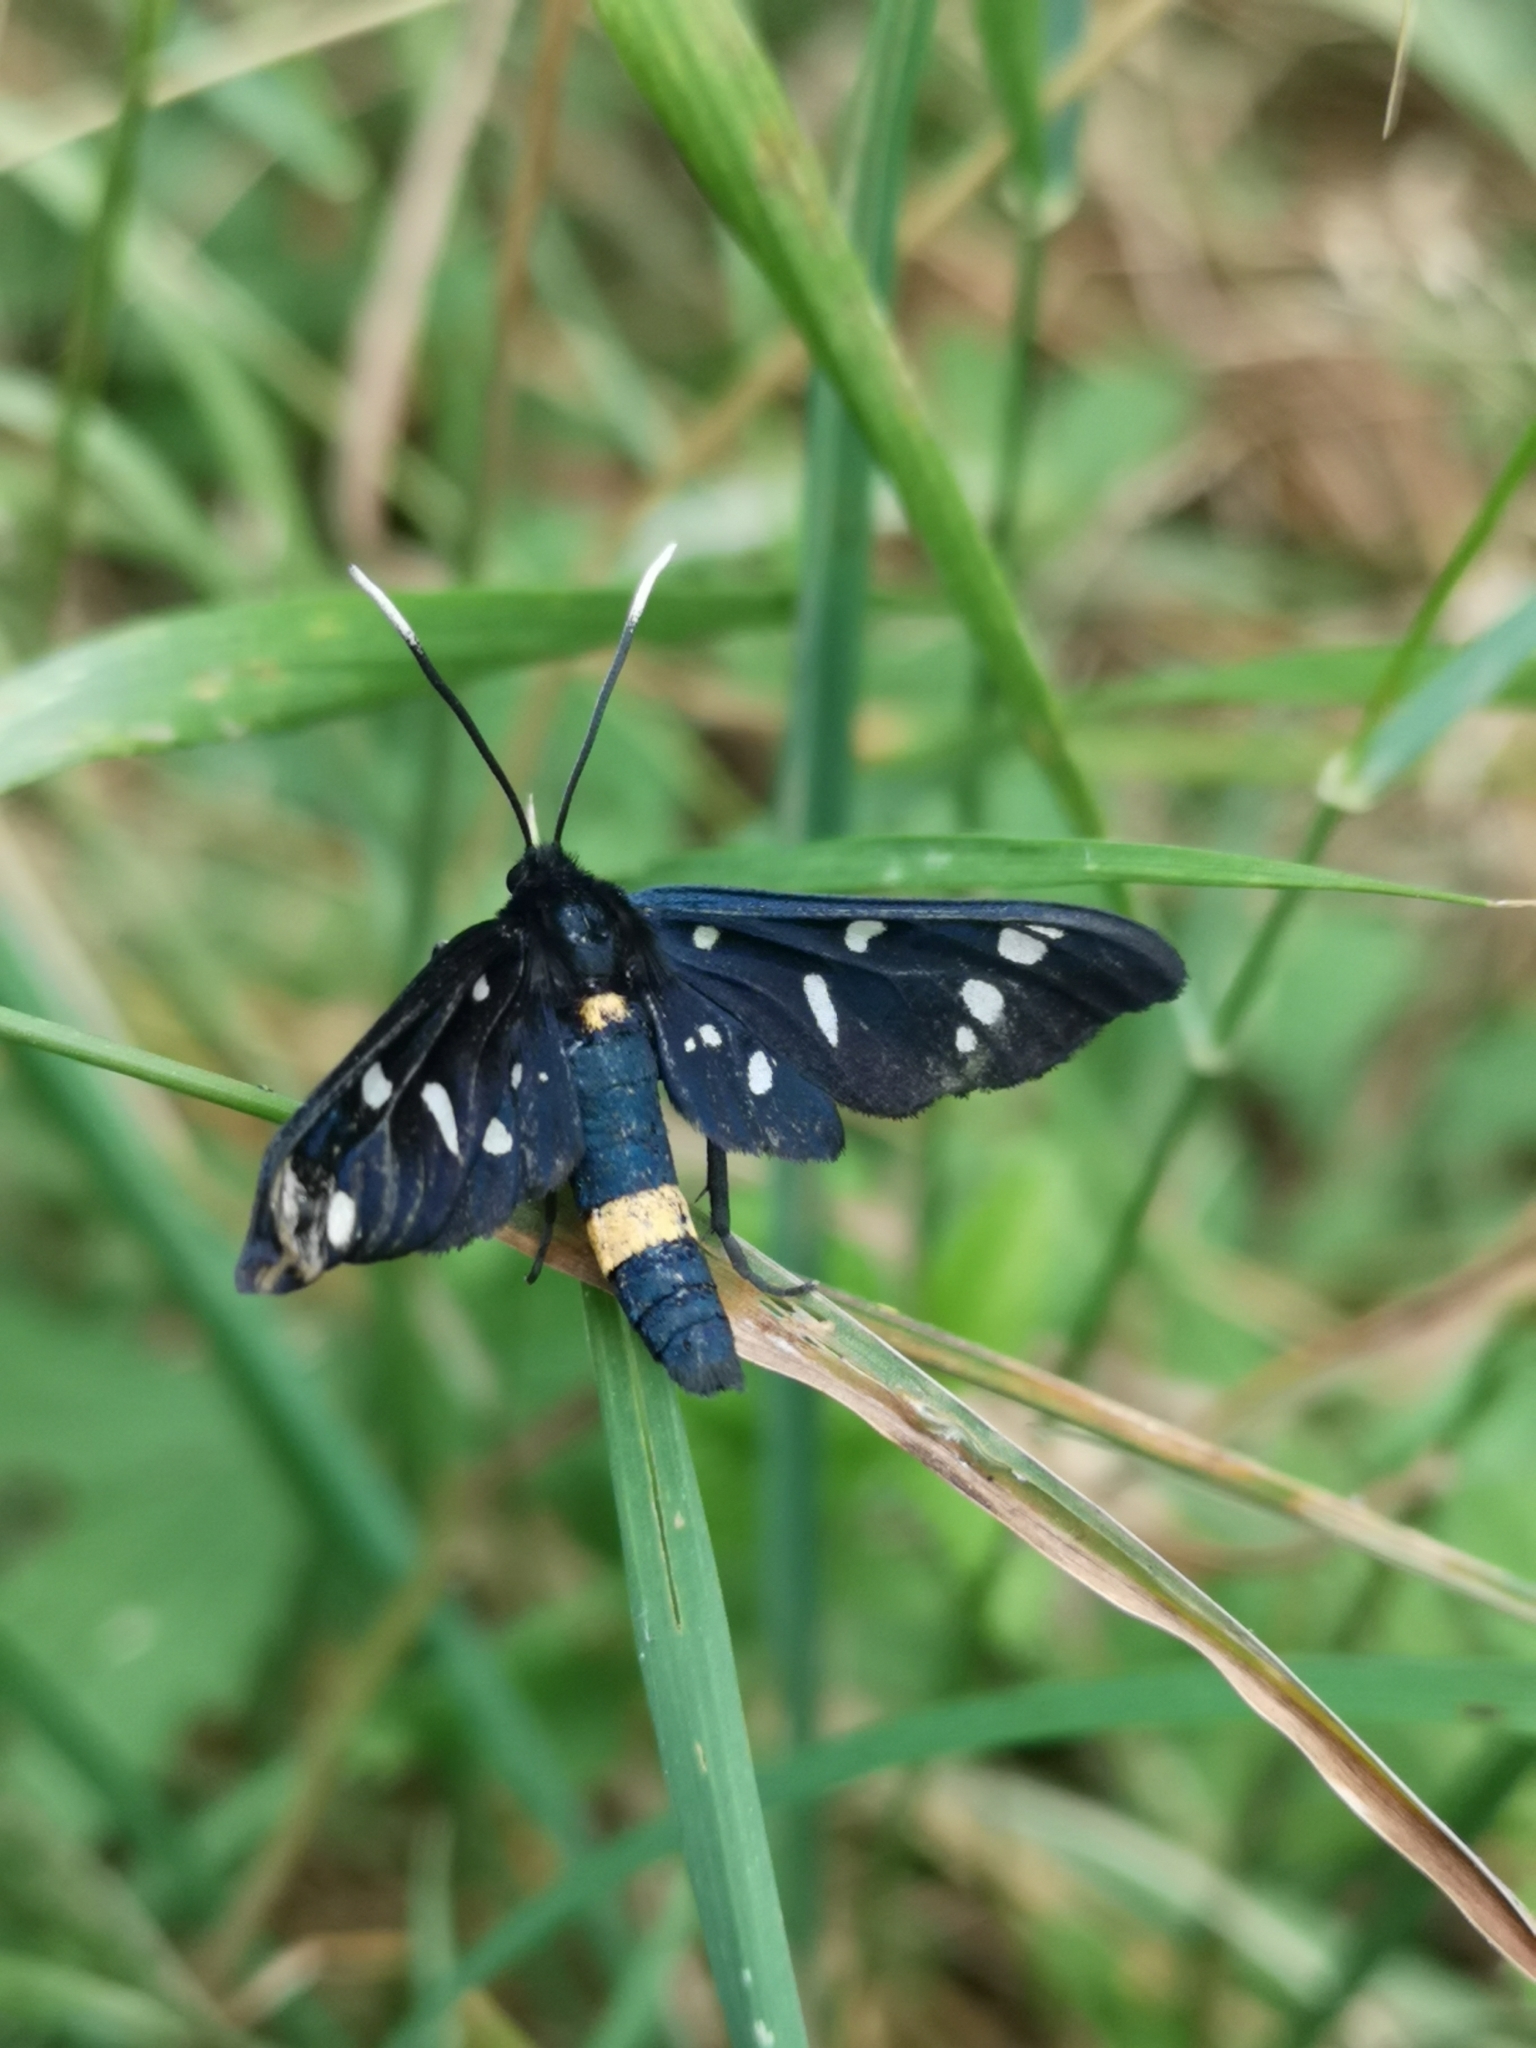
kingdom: Animalia
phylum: Arthropoda
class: Insecta
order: Lepidoptera
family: Erebidae
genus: Amata
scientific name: Amata phegea
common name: Nine-spotted
